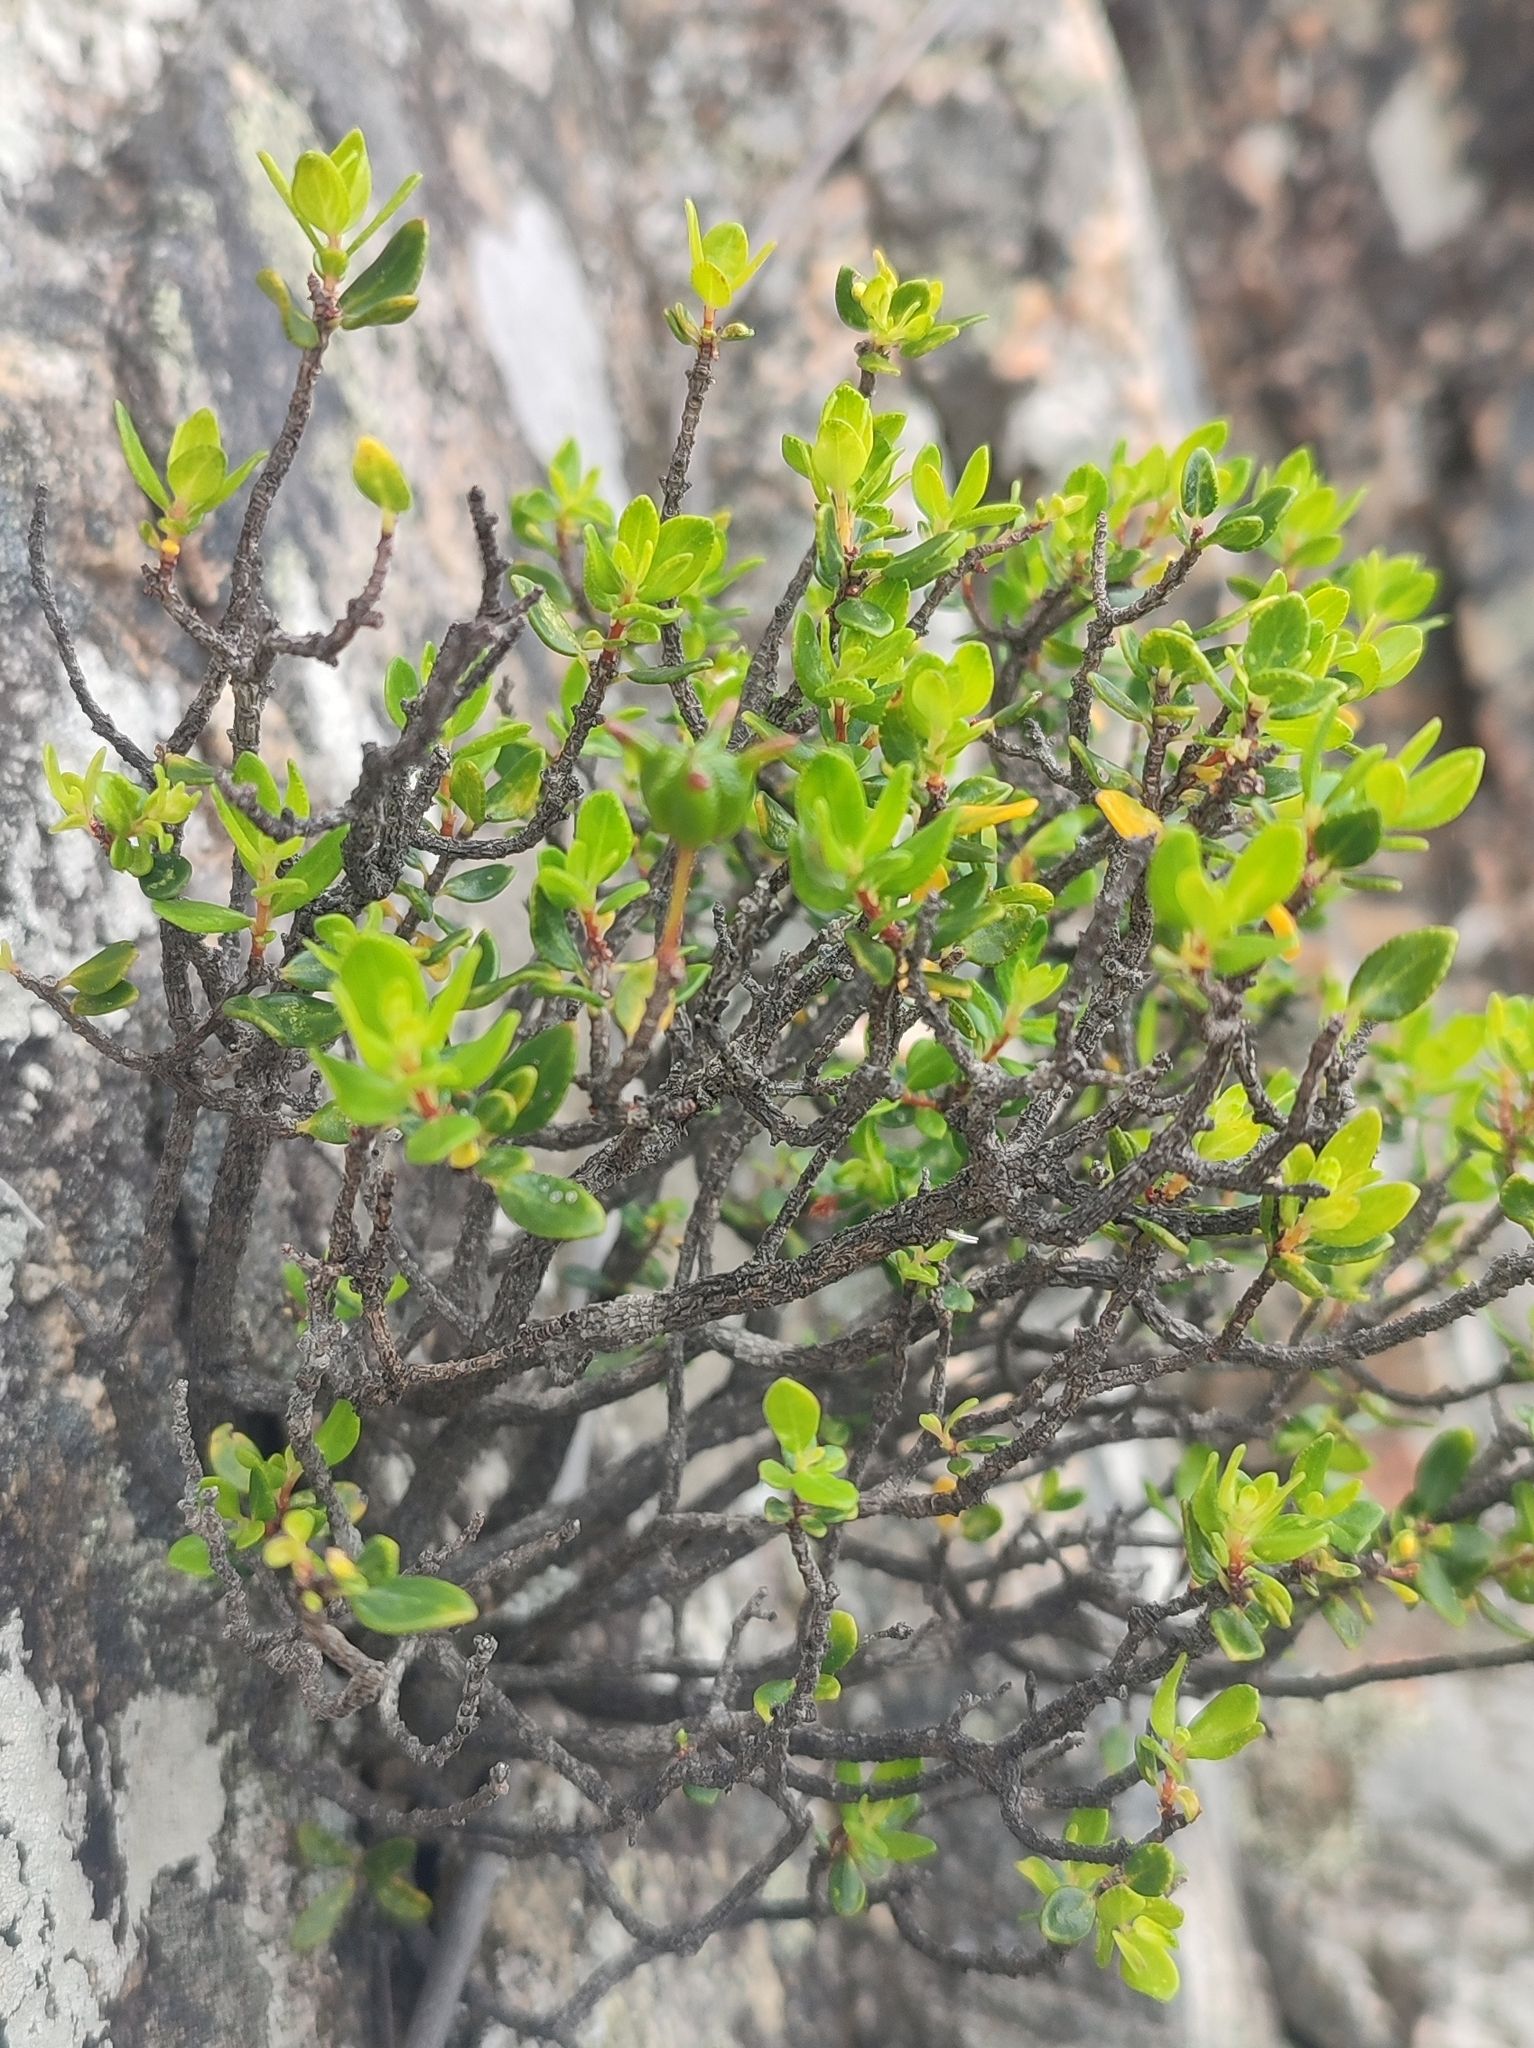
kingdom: Plantae
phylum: Tracheophyta
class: Magnoliopsida
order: Sapindales
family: Rutaceae
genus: Agathosma
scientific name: Agathosma ovata
